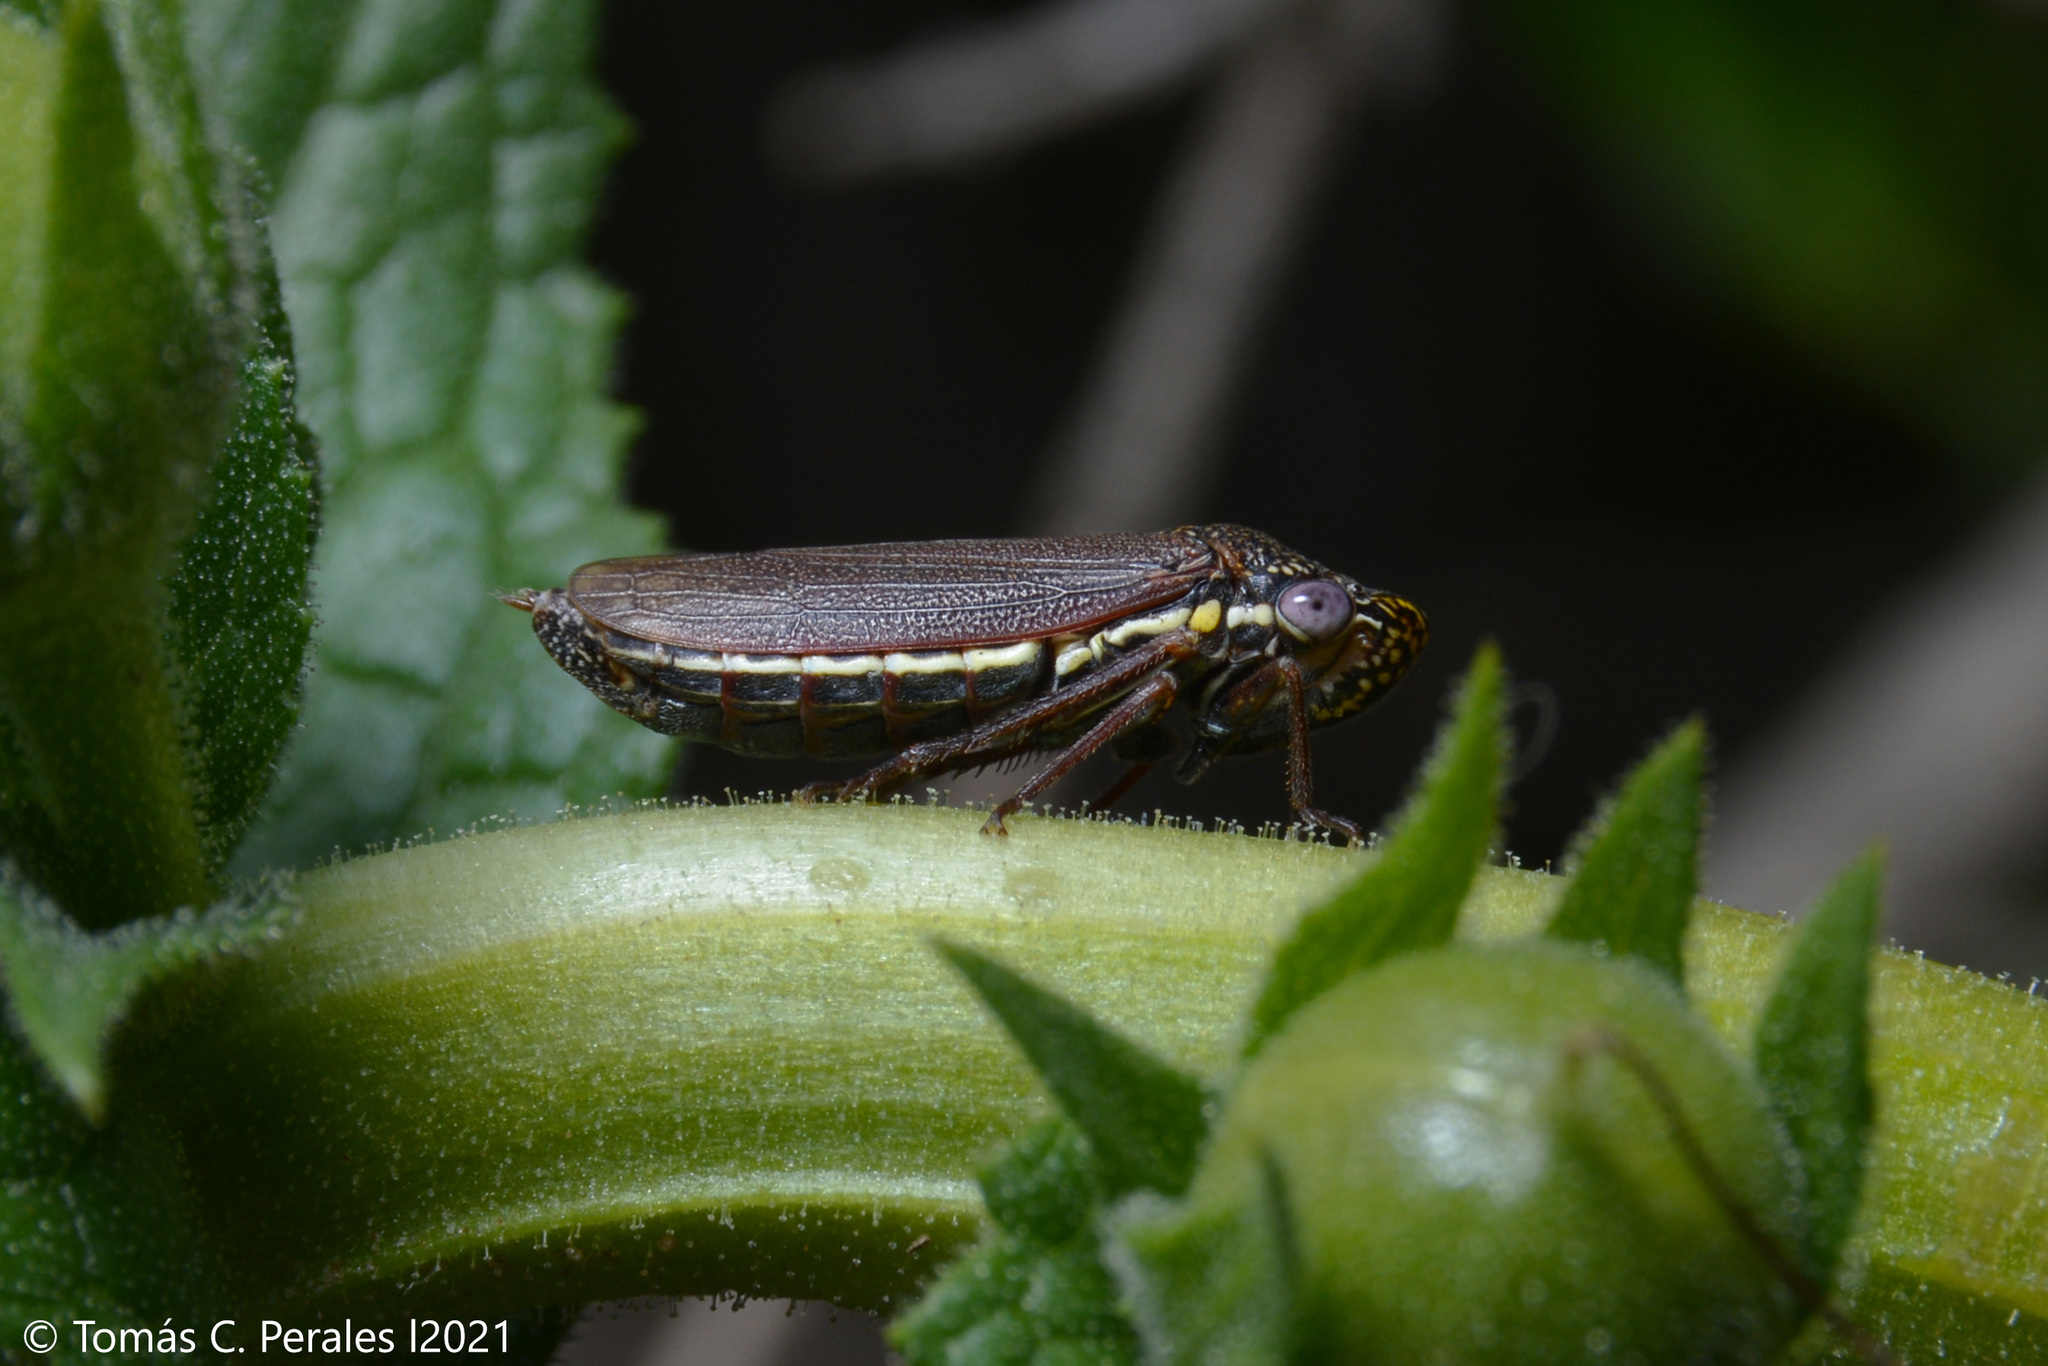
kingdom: Animalia
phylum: Arthropoda
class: Insecta
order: Hemiptera
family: Cicadellidae
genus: Tapajosa
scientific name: Tapajosa rubromarginata
